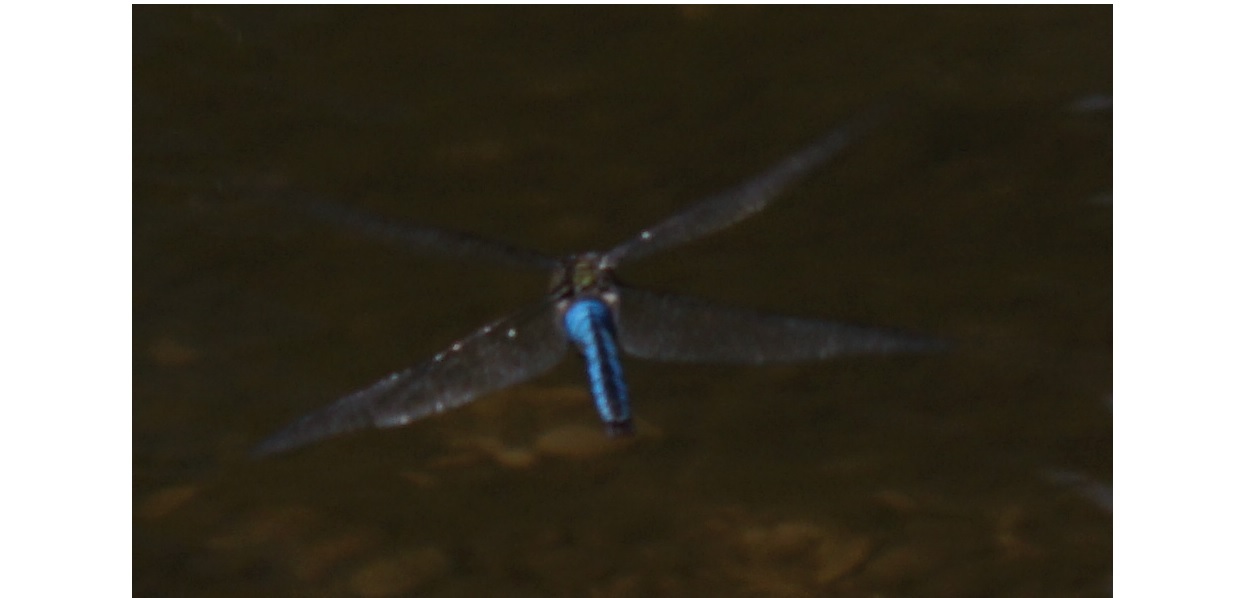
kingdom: Animalia
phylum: Arthropoda
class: Insecta
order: Odonata
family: Aeshnidae
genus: Anax
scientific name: Anax imperator
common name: Emperor dragonfly
